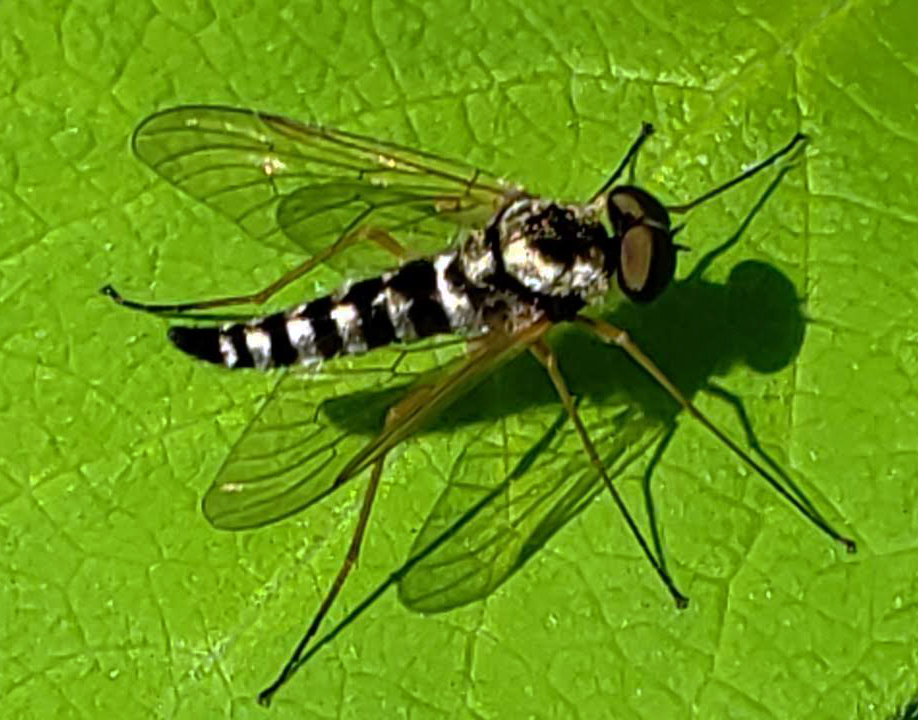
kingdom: Animalia
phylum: Arthropoda
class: Insecta
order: Diptera
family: Rhagionidae
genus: Chrysopilus
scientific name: Chrysopilus ornatus
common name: Ornate snipe fly
